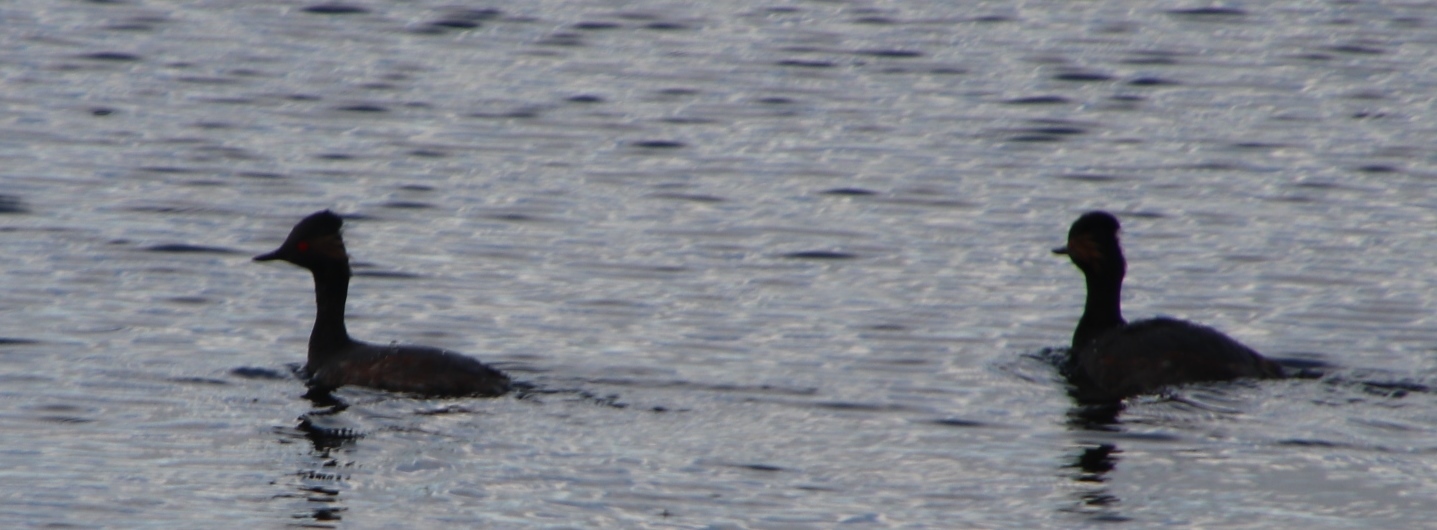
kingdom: Animalia
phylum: Chordata
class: Aves
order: Podicipediformes
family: Podicipedidae
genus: Podiceps
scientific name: Podiceps nigricollis
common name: Black-necked grebe
